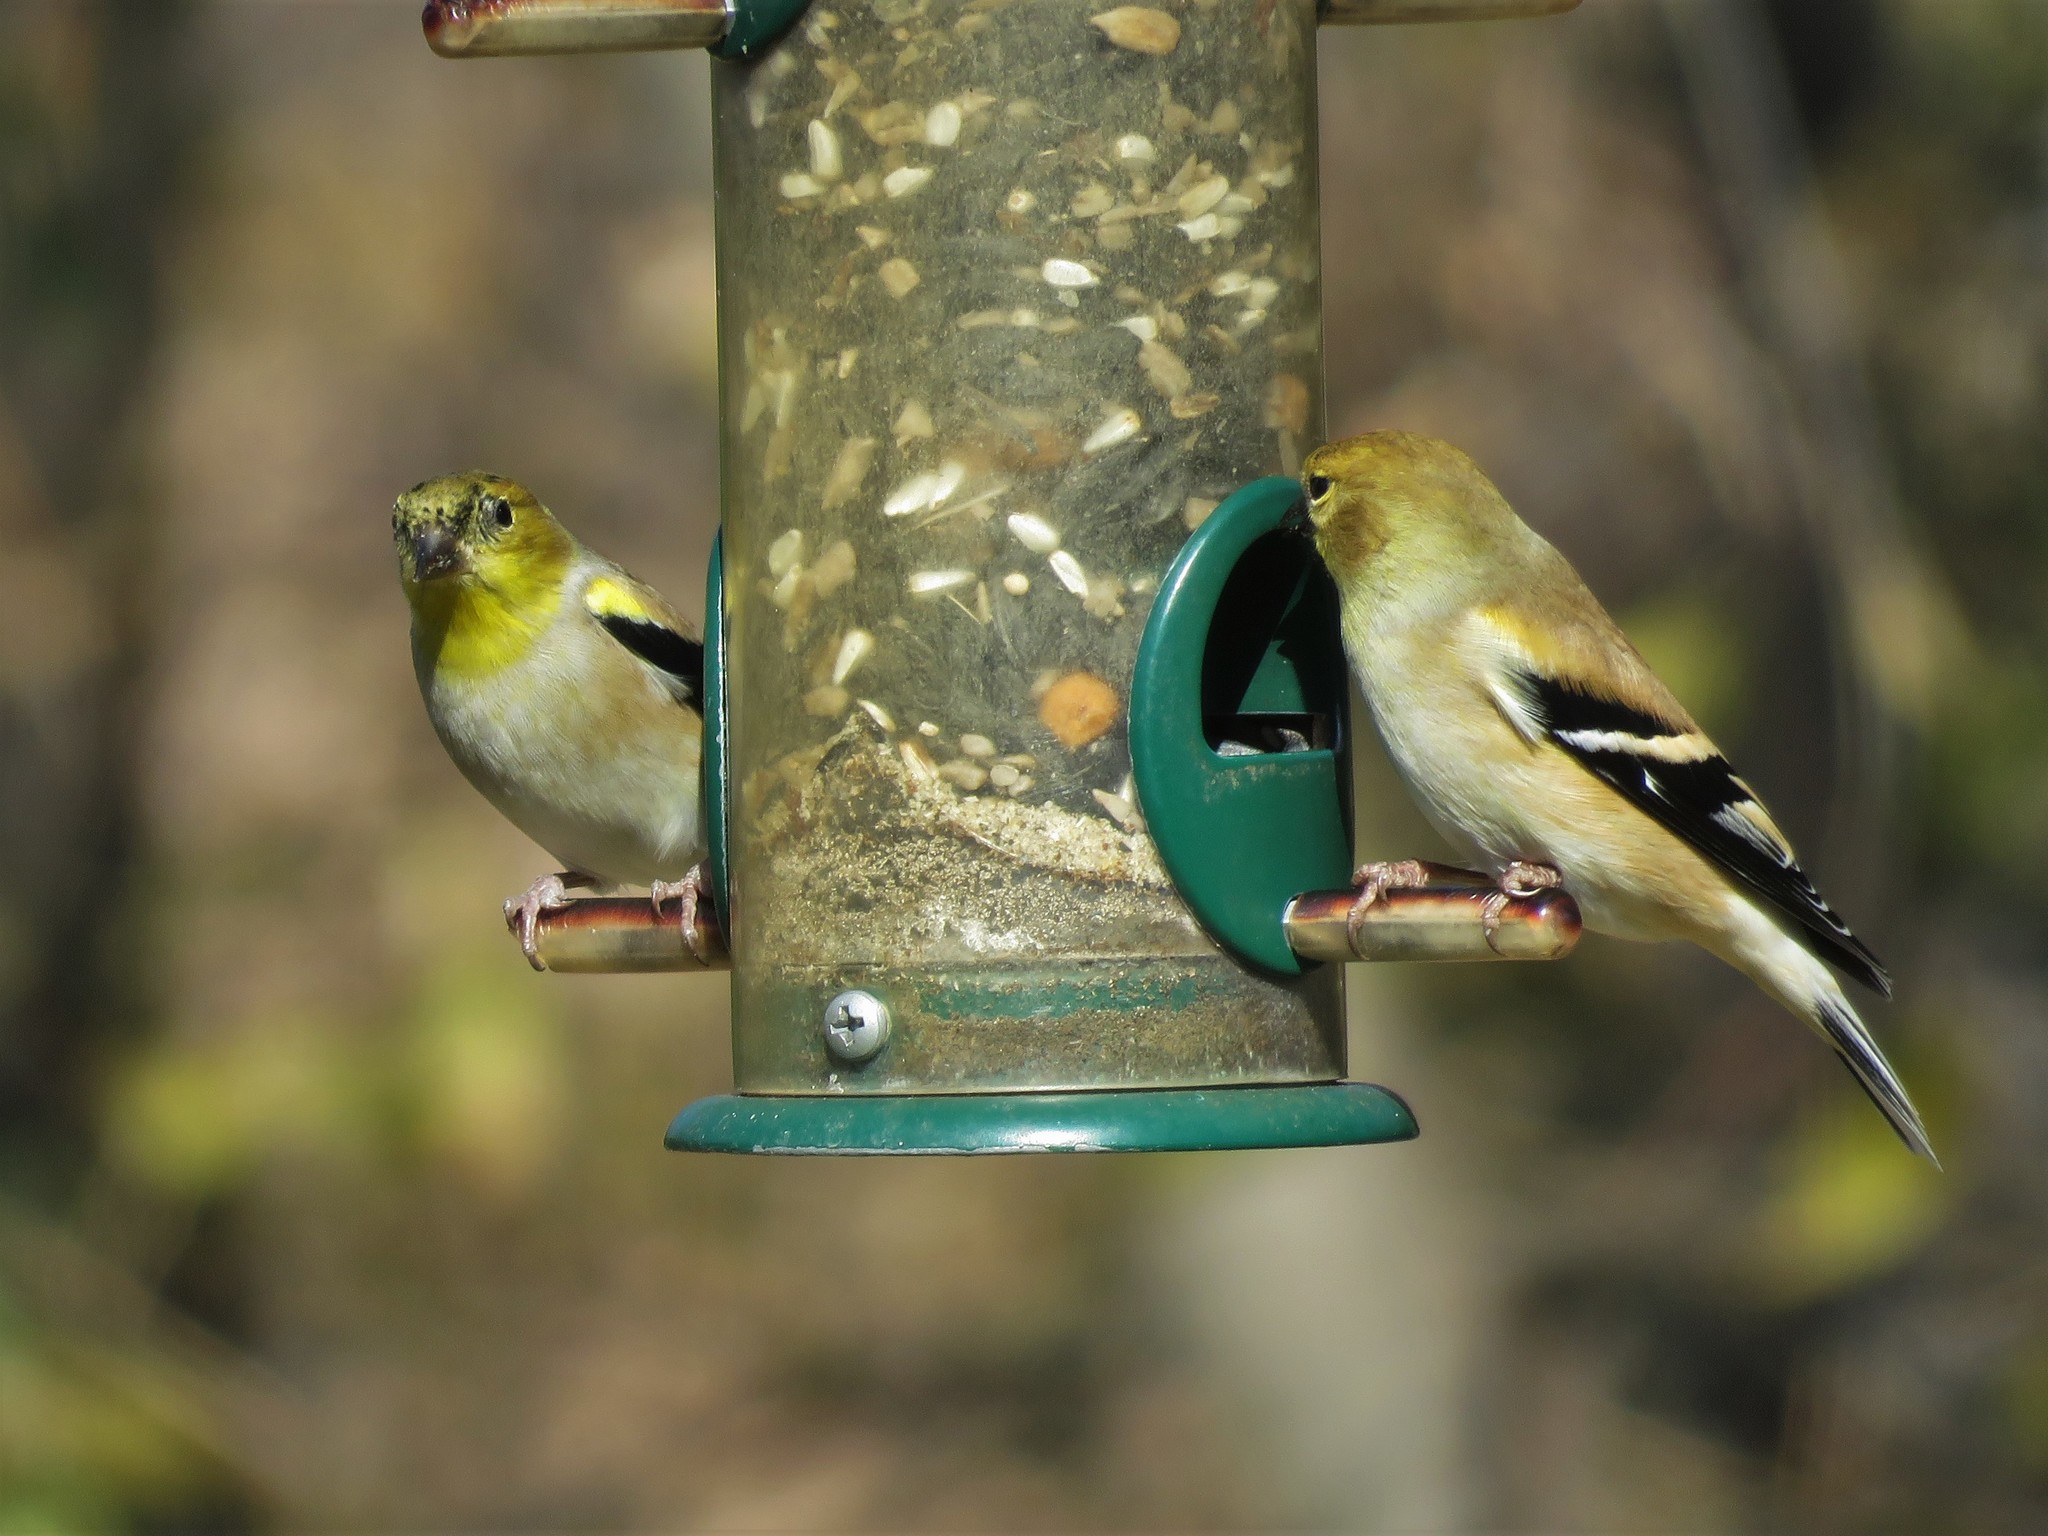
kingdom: Animalia
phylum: Chordata
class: Aves
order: Passeriformes
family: Fringillidae
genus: Spinus
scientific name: Spinus tristis
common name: American goldfinch
